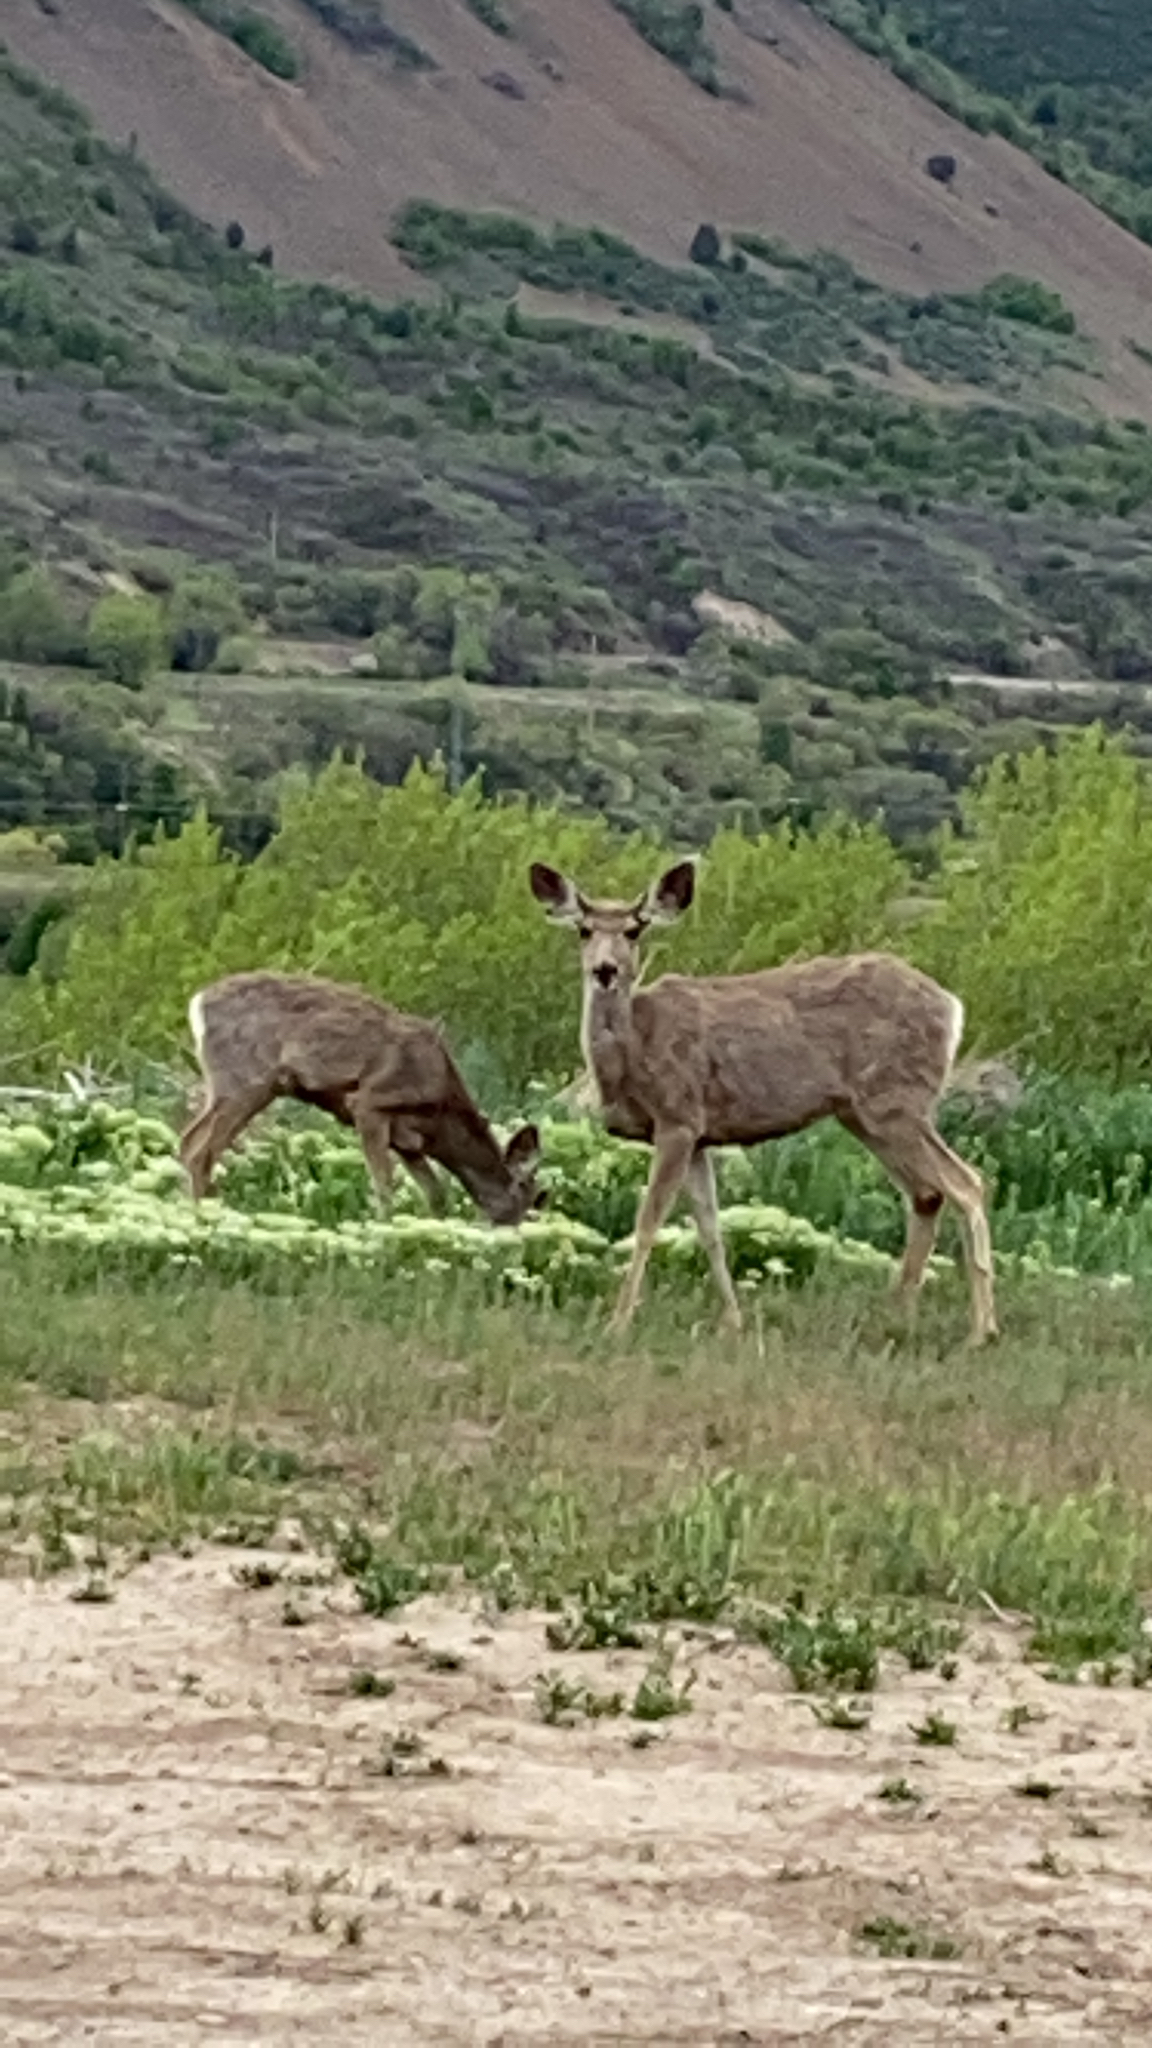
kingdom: Animalia
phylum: Chordata
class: Mammalia
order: Artiodactyla
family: Cervidae
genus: Odocoileus
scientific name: Odocoileus hemionus
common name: Mule deer
